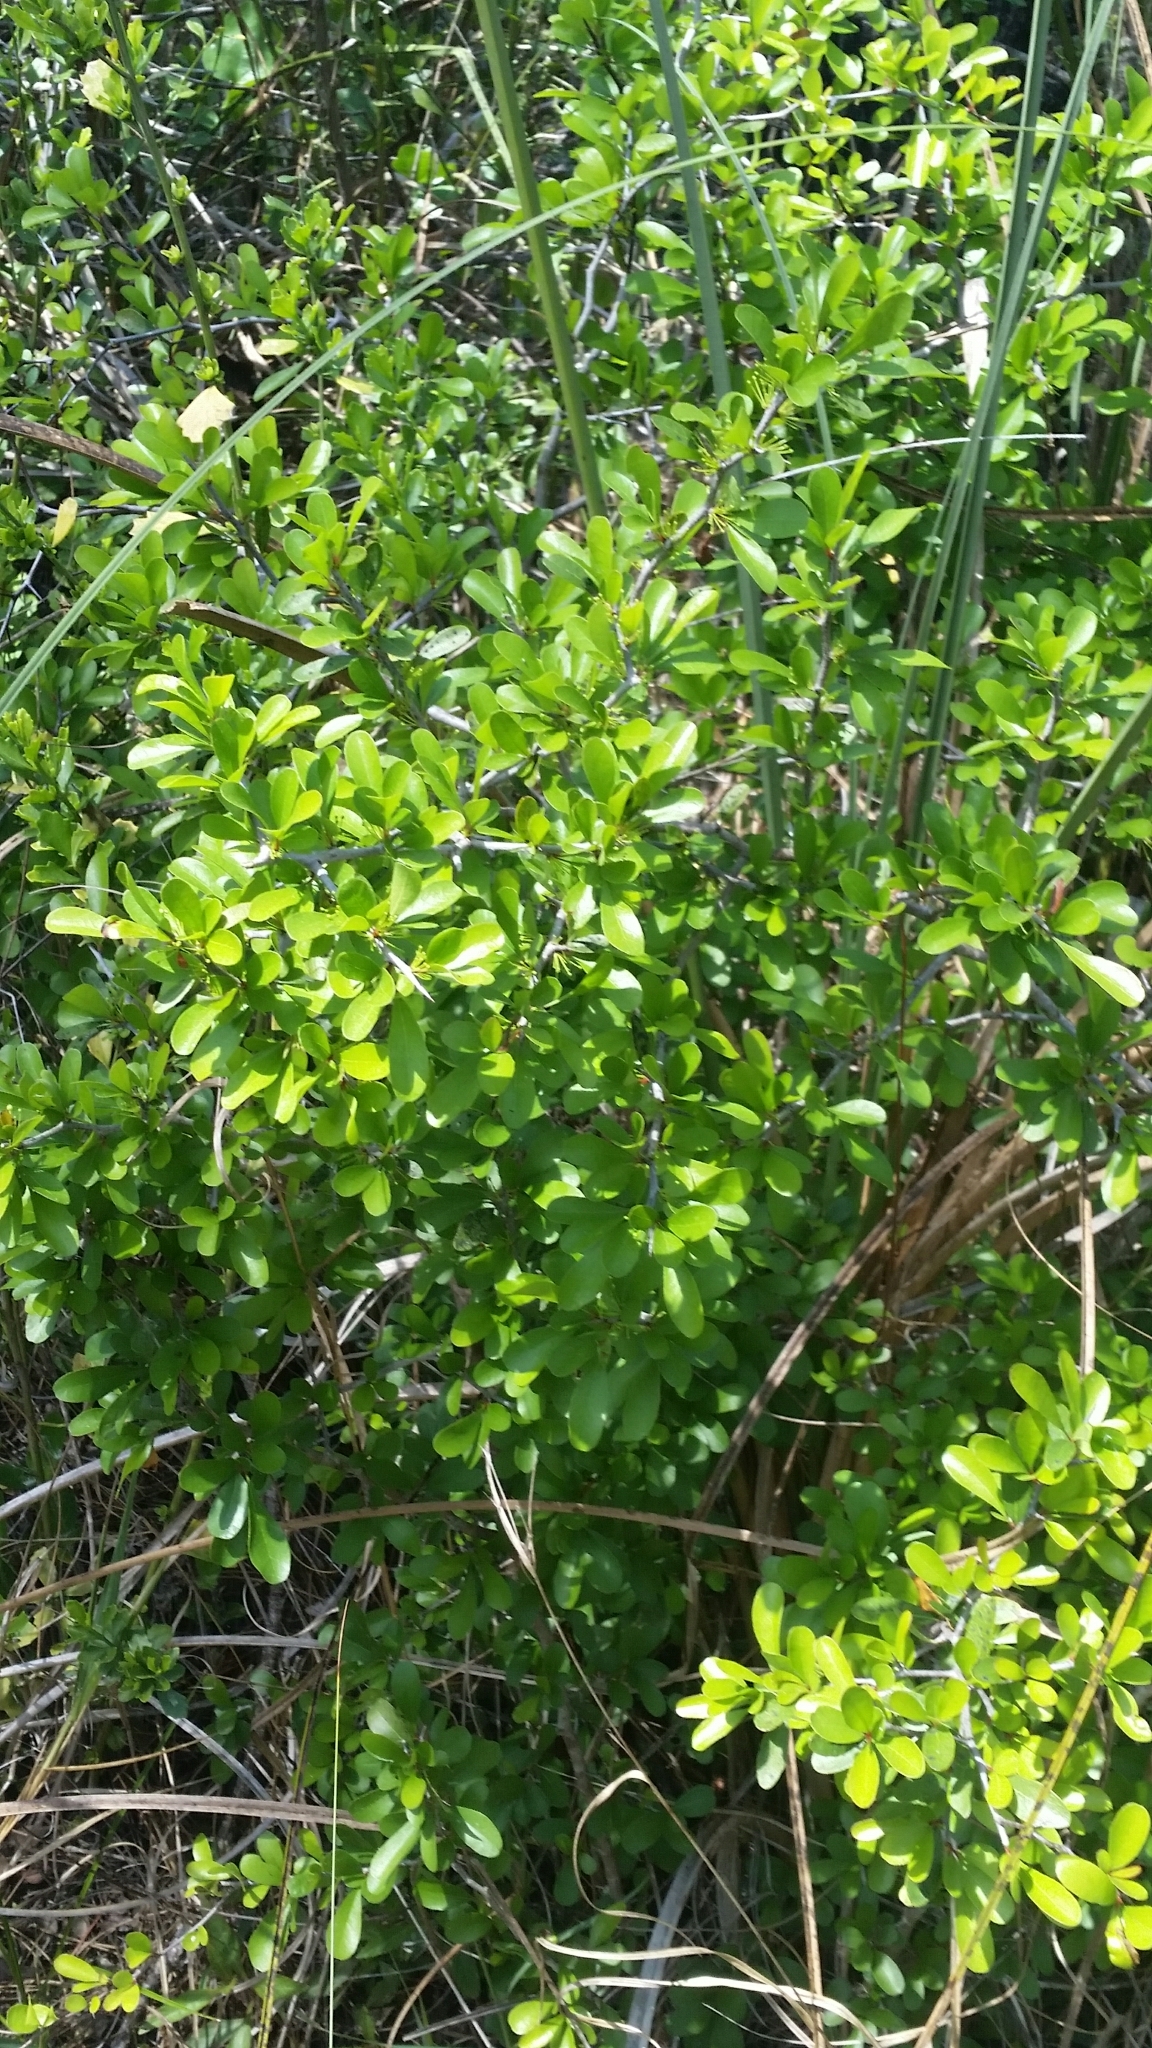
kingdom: Plantae
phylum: Tracheophyta
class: Magnoliopsida
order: Ericales
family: Sapotaceae
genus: Sideroxylon
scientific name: Sideroxylon reclinatum
